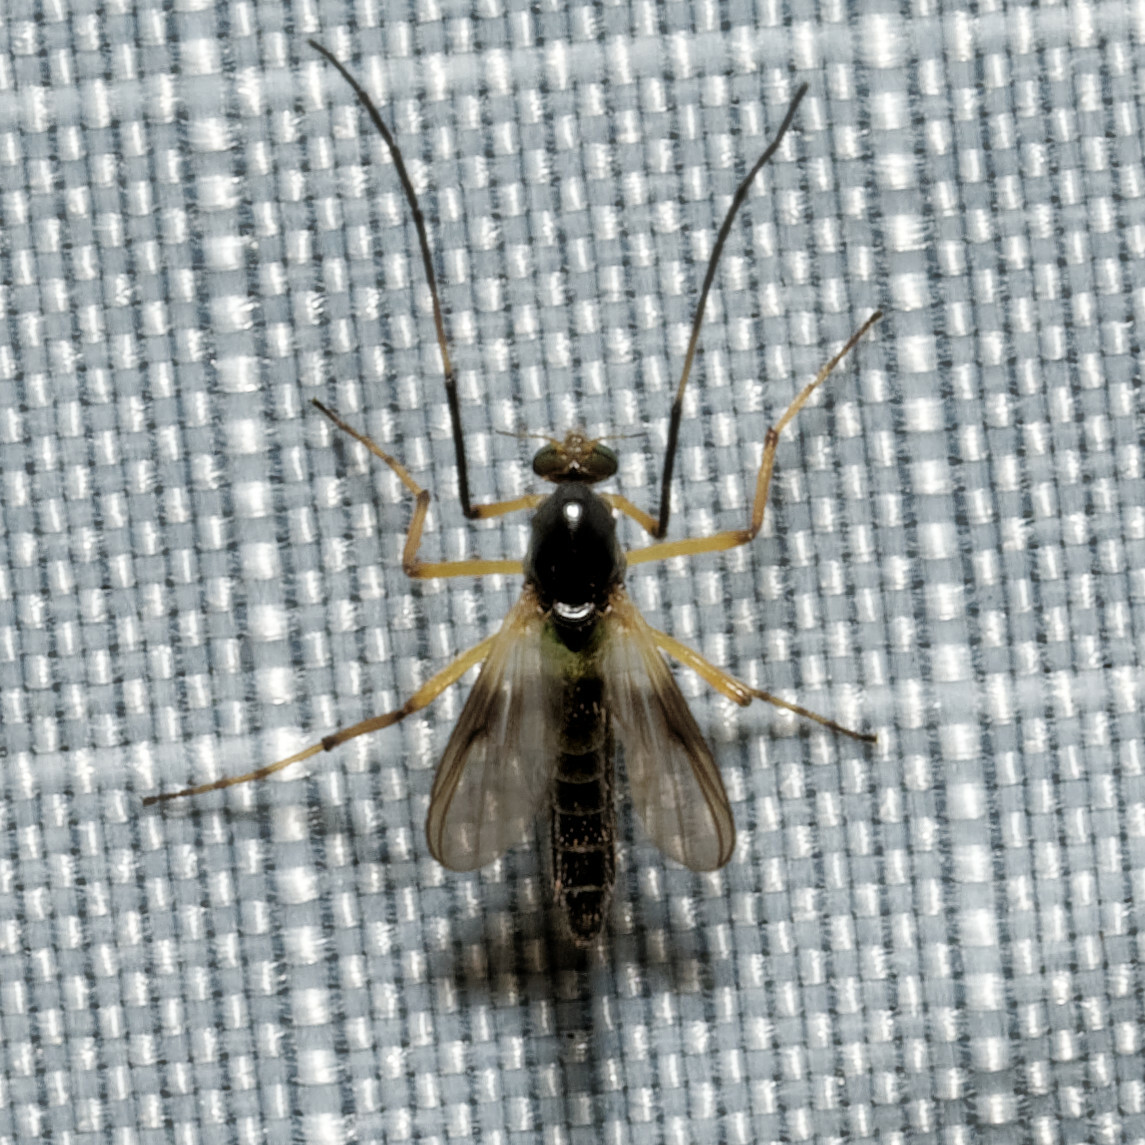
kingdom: Animalia
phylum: Arthropoda
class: Insecta
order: Diptera
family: Chironomidae
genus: Demeijerea
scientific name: Demeijerea brachialis
